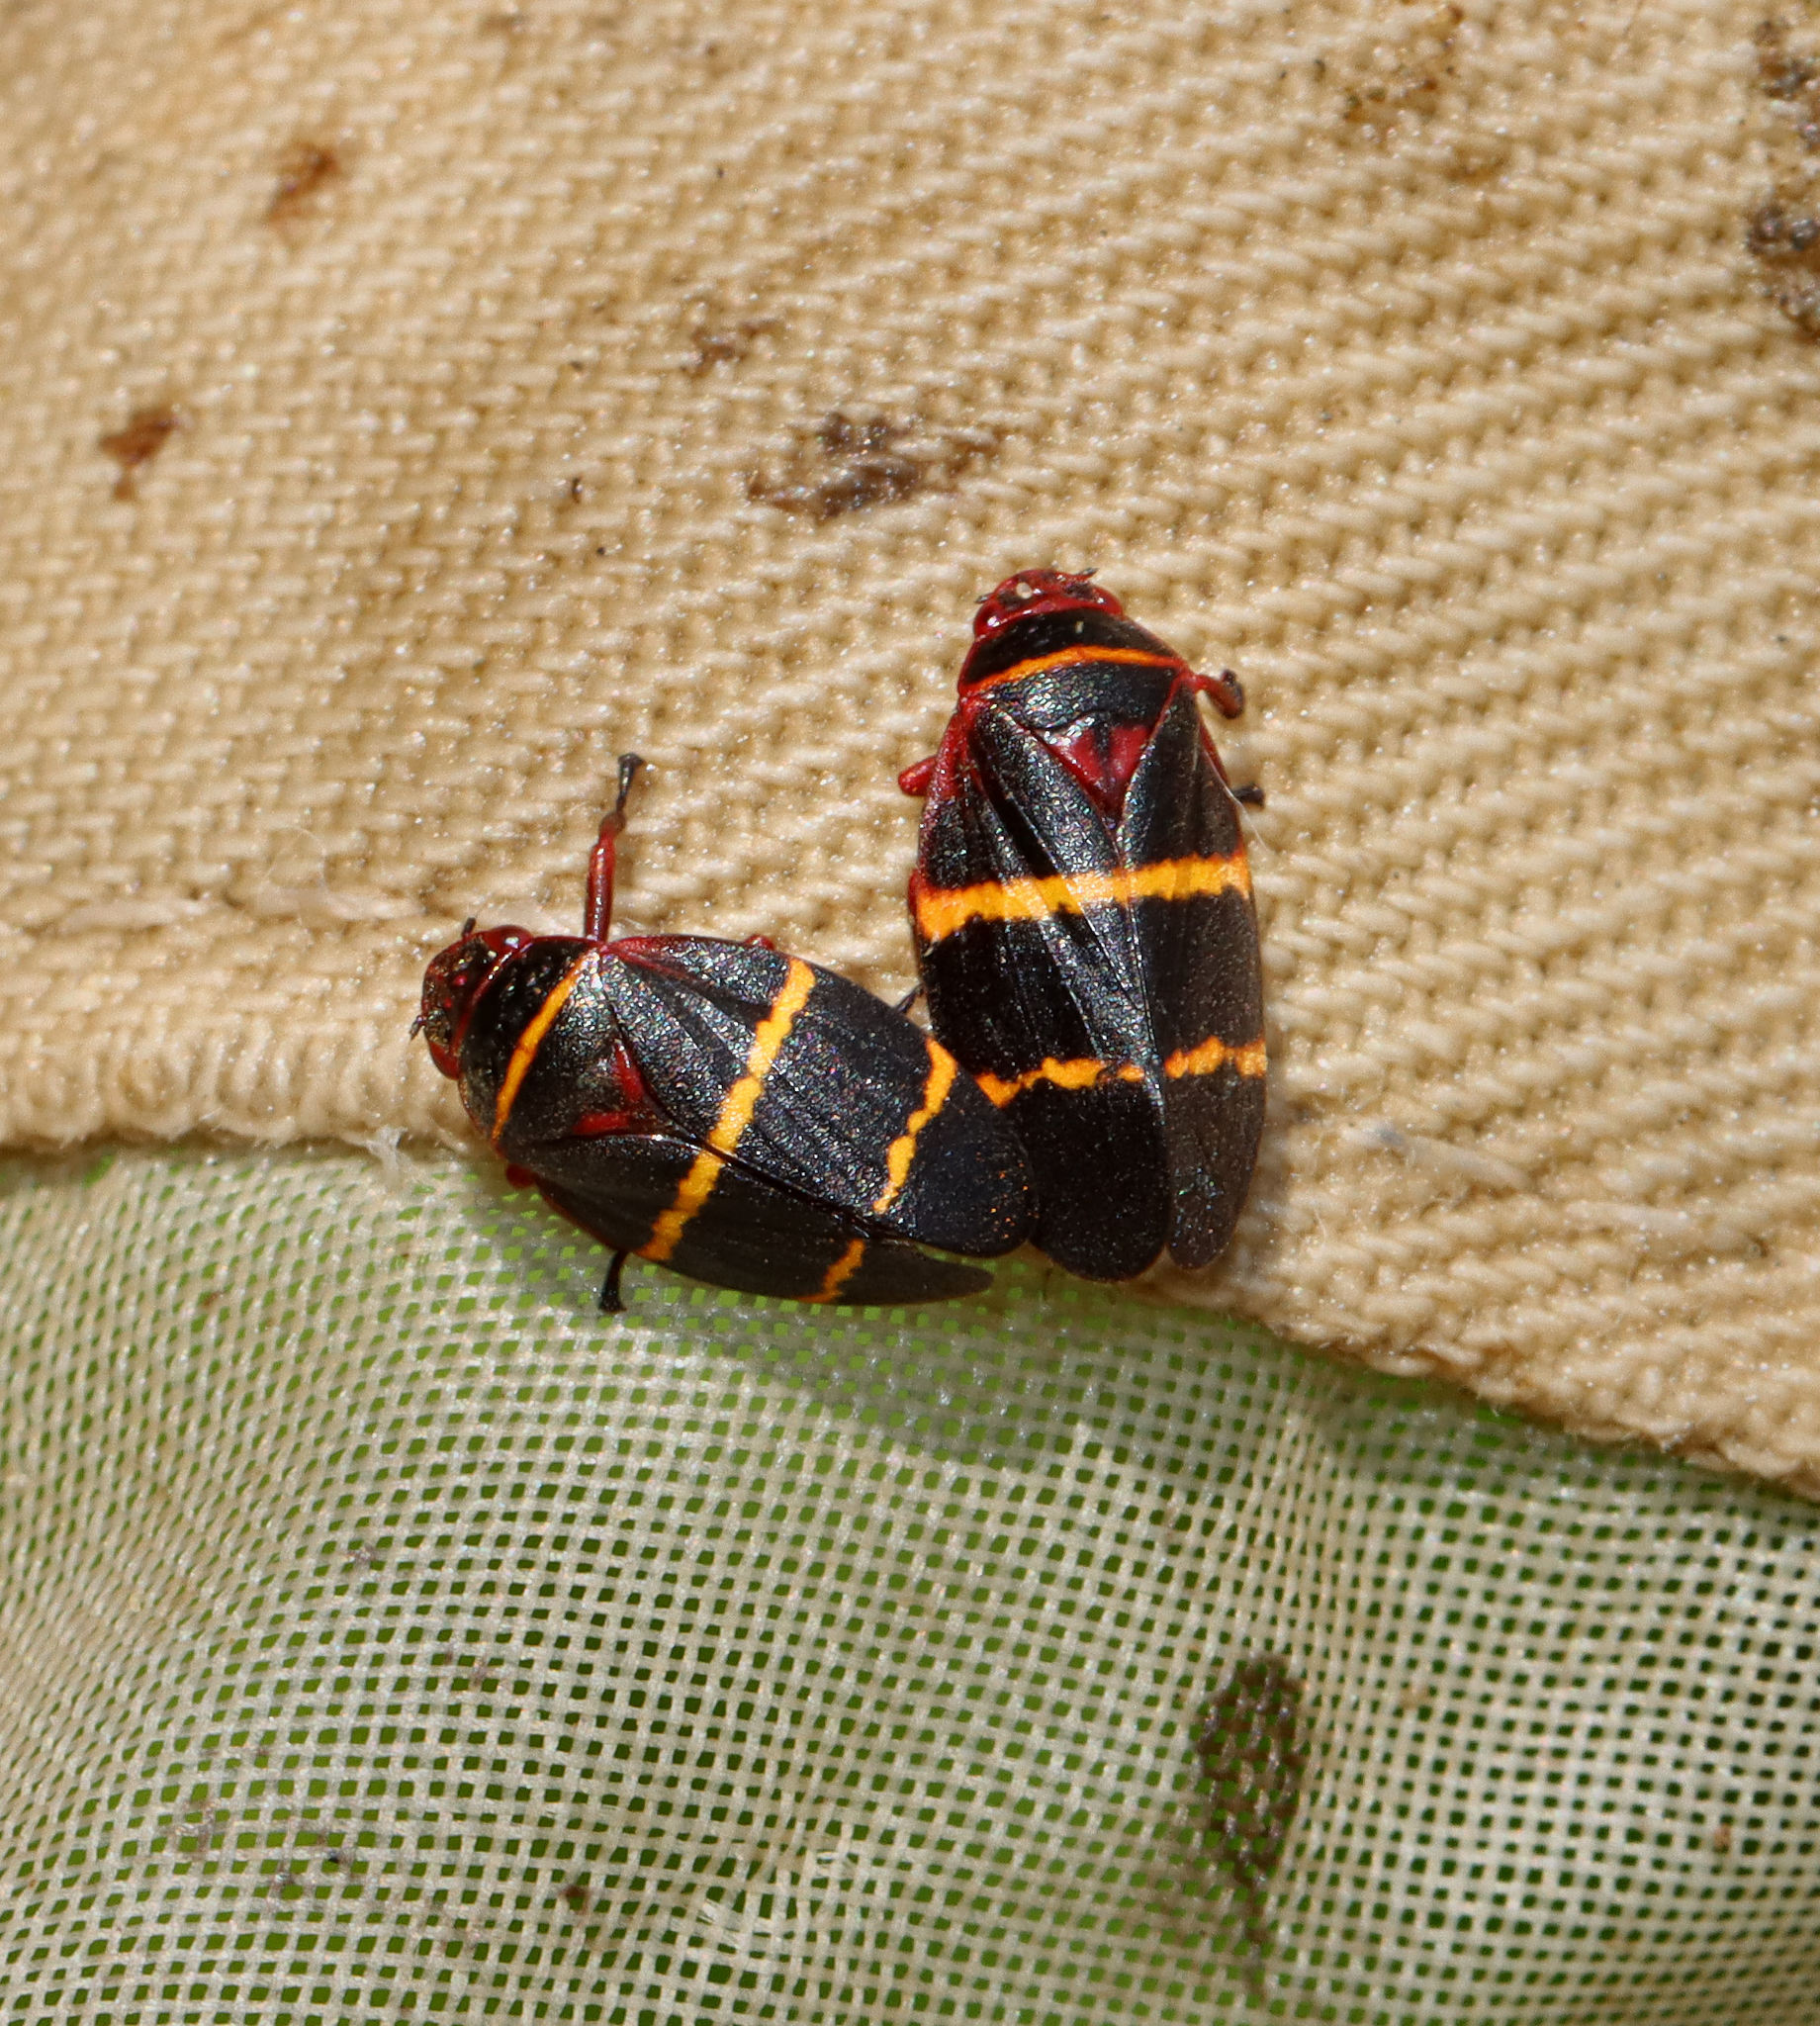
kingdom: Animalia
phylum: Arthropoda
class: Insecta
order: Hemiptera
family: Cercopidae
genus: Prosapia
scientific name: Prosapia bicincta
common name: Twolined spittlebug
